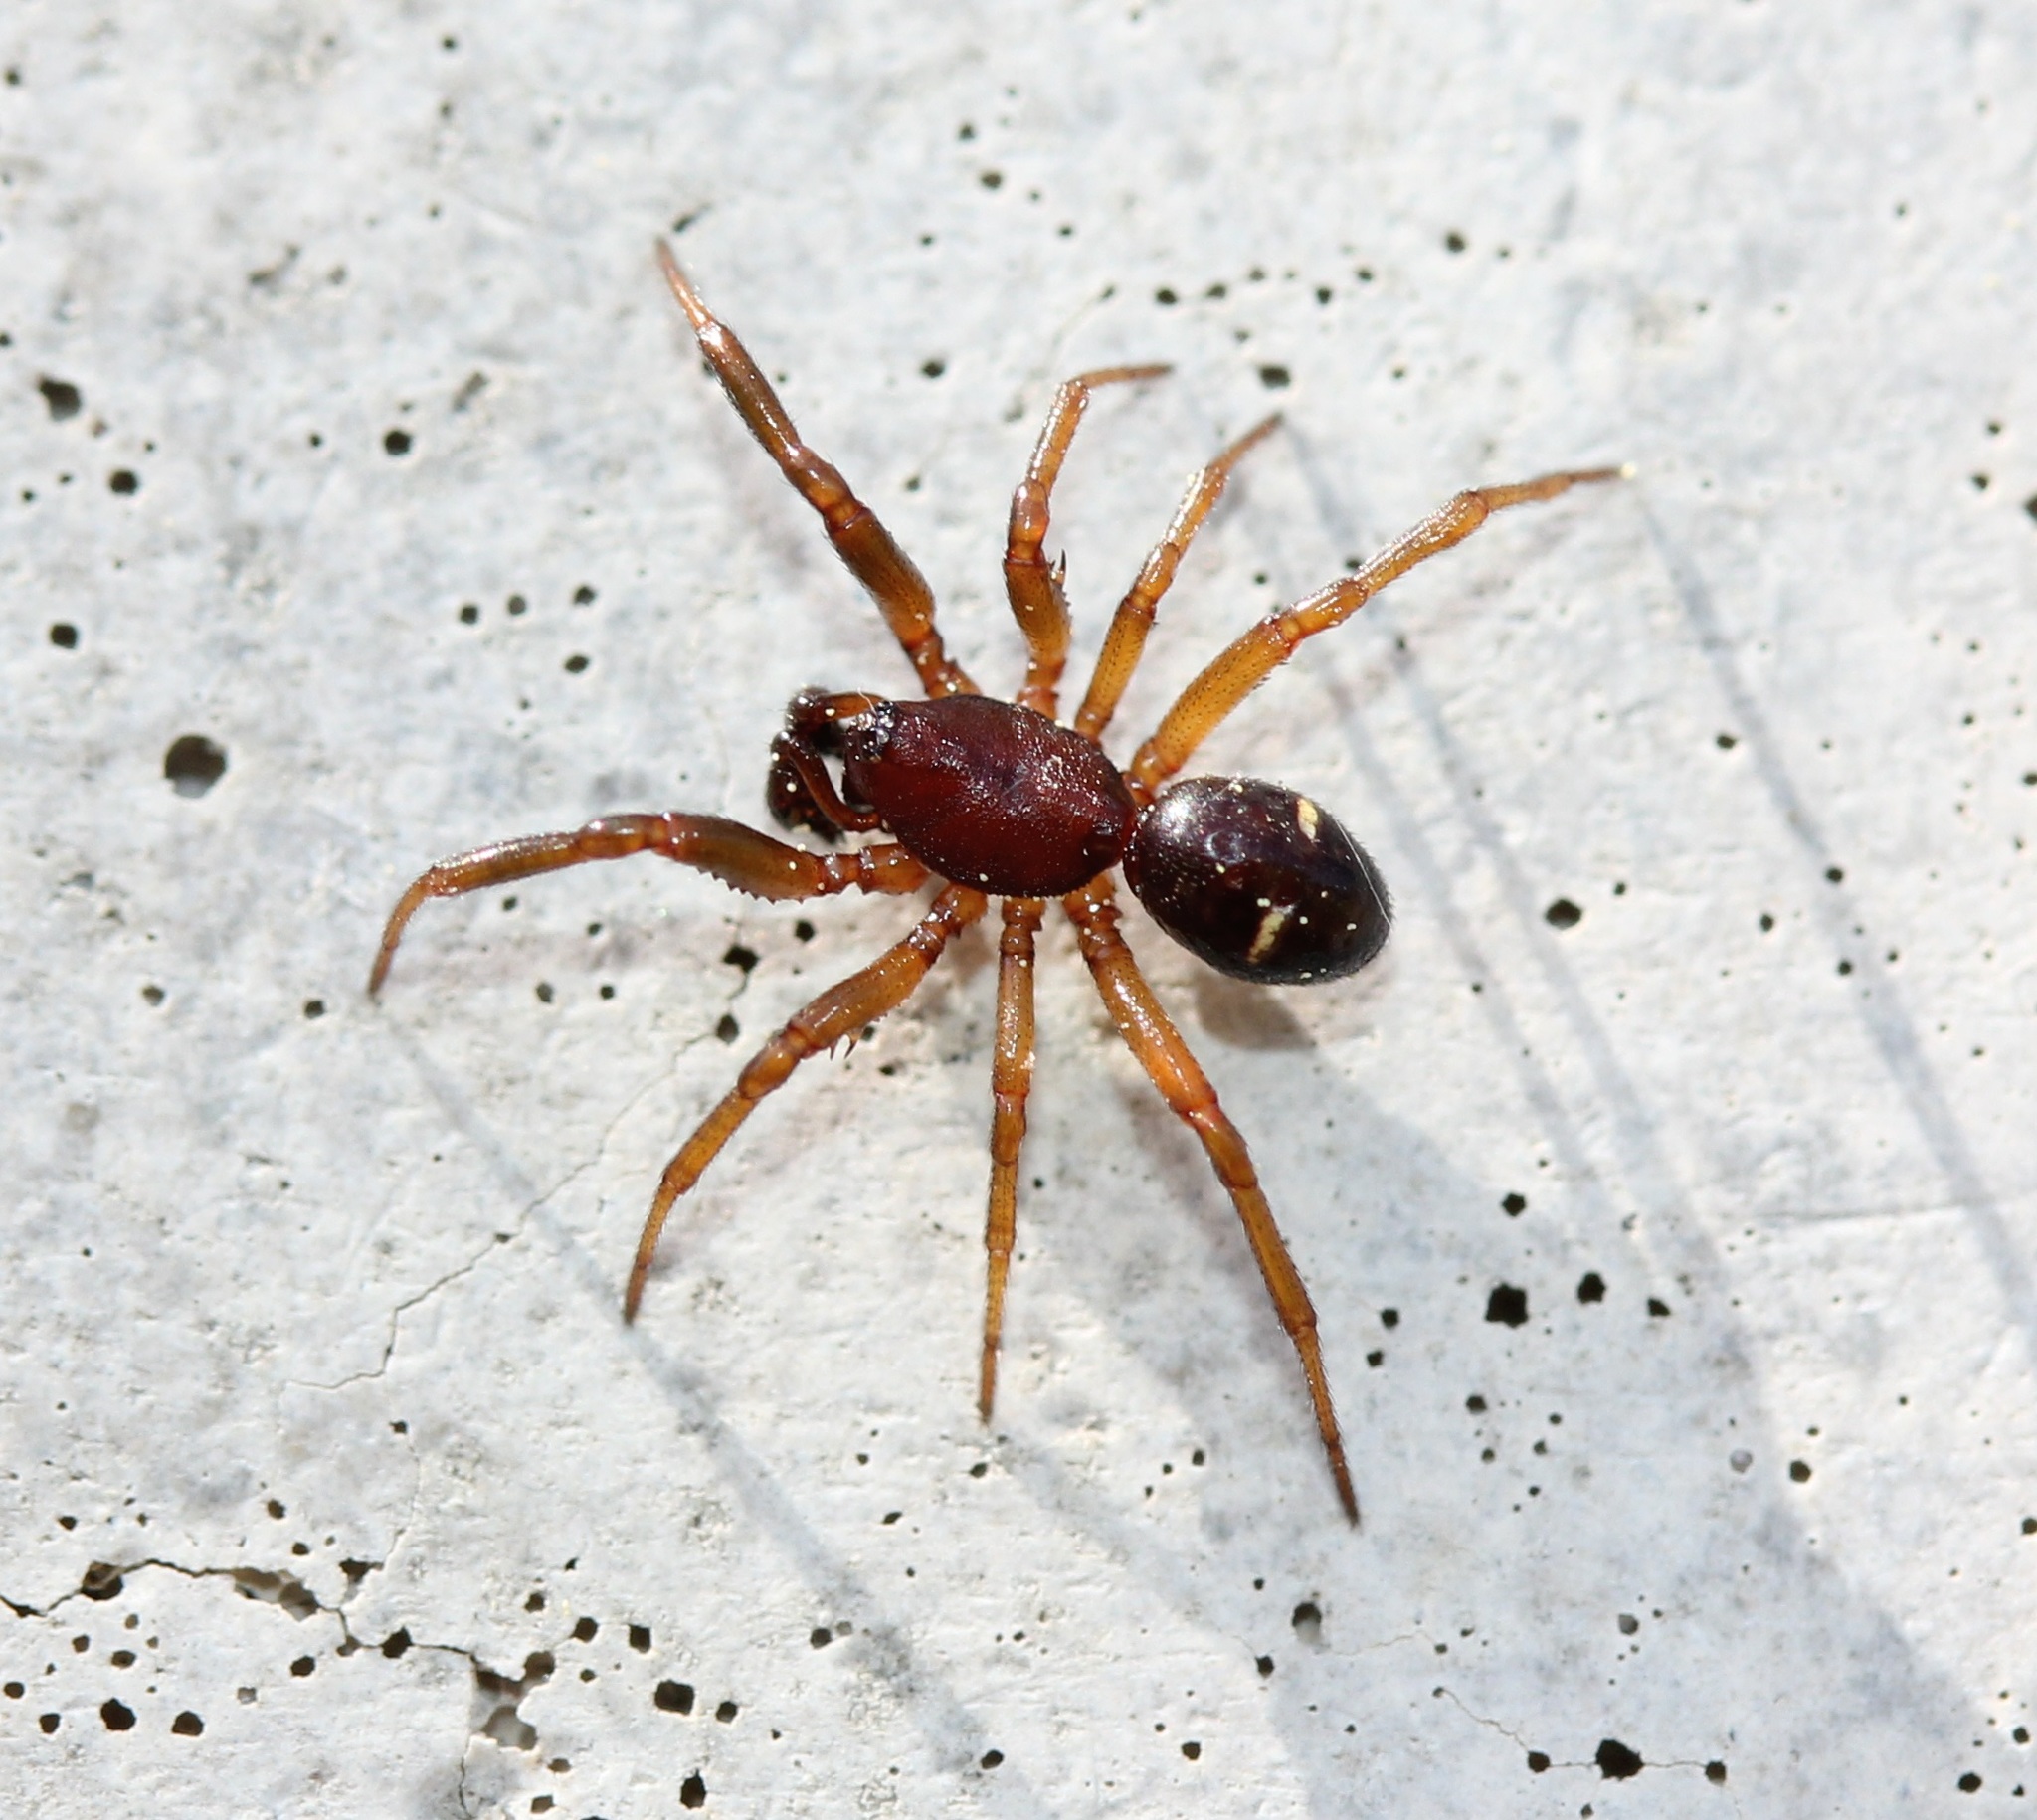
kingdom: Animalia
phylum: Arthropoda
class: Arachnida
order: Araneae
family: Theridiidae
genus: Asagena
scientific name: Asagena americana
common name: Two-spotted cobweb spider
